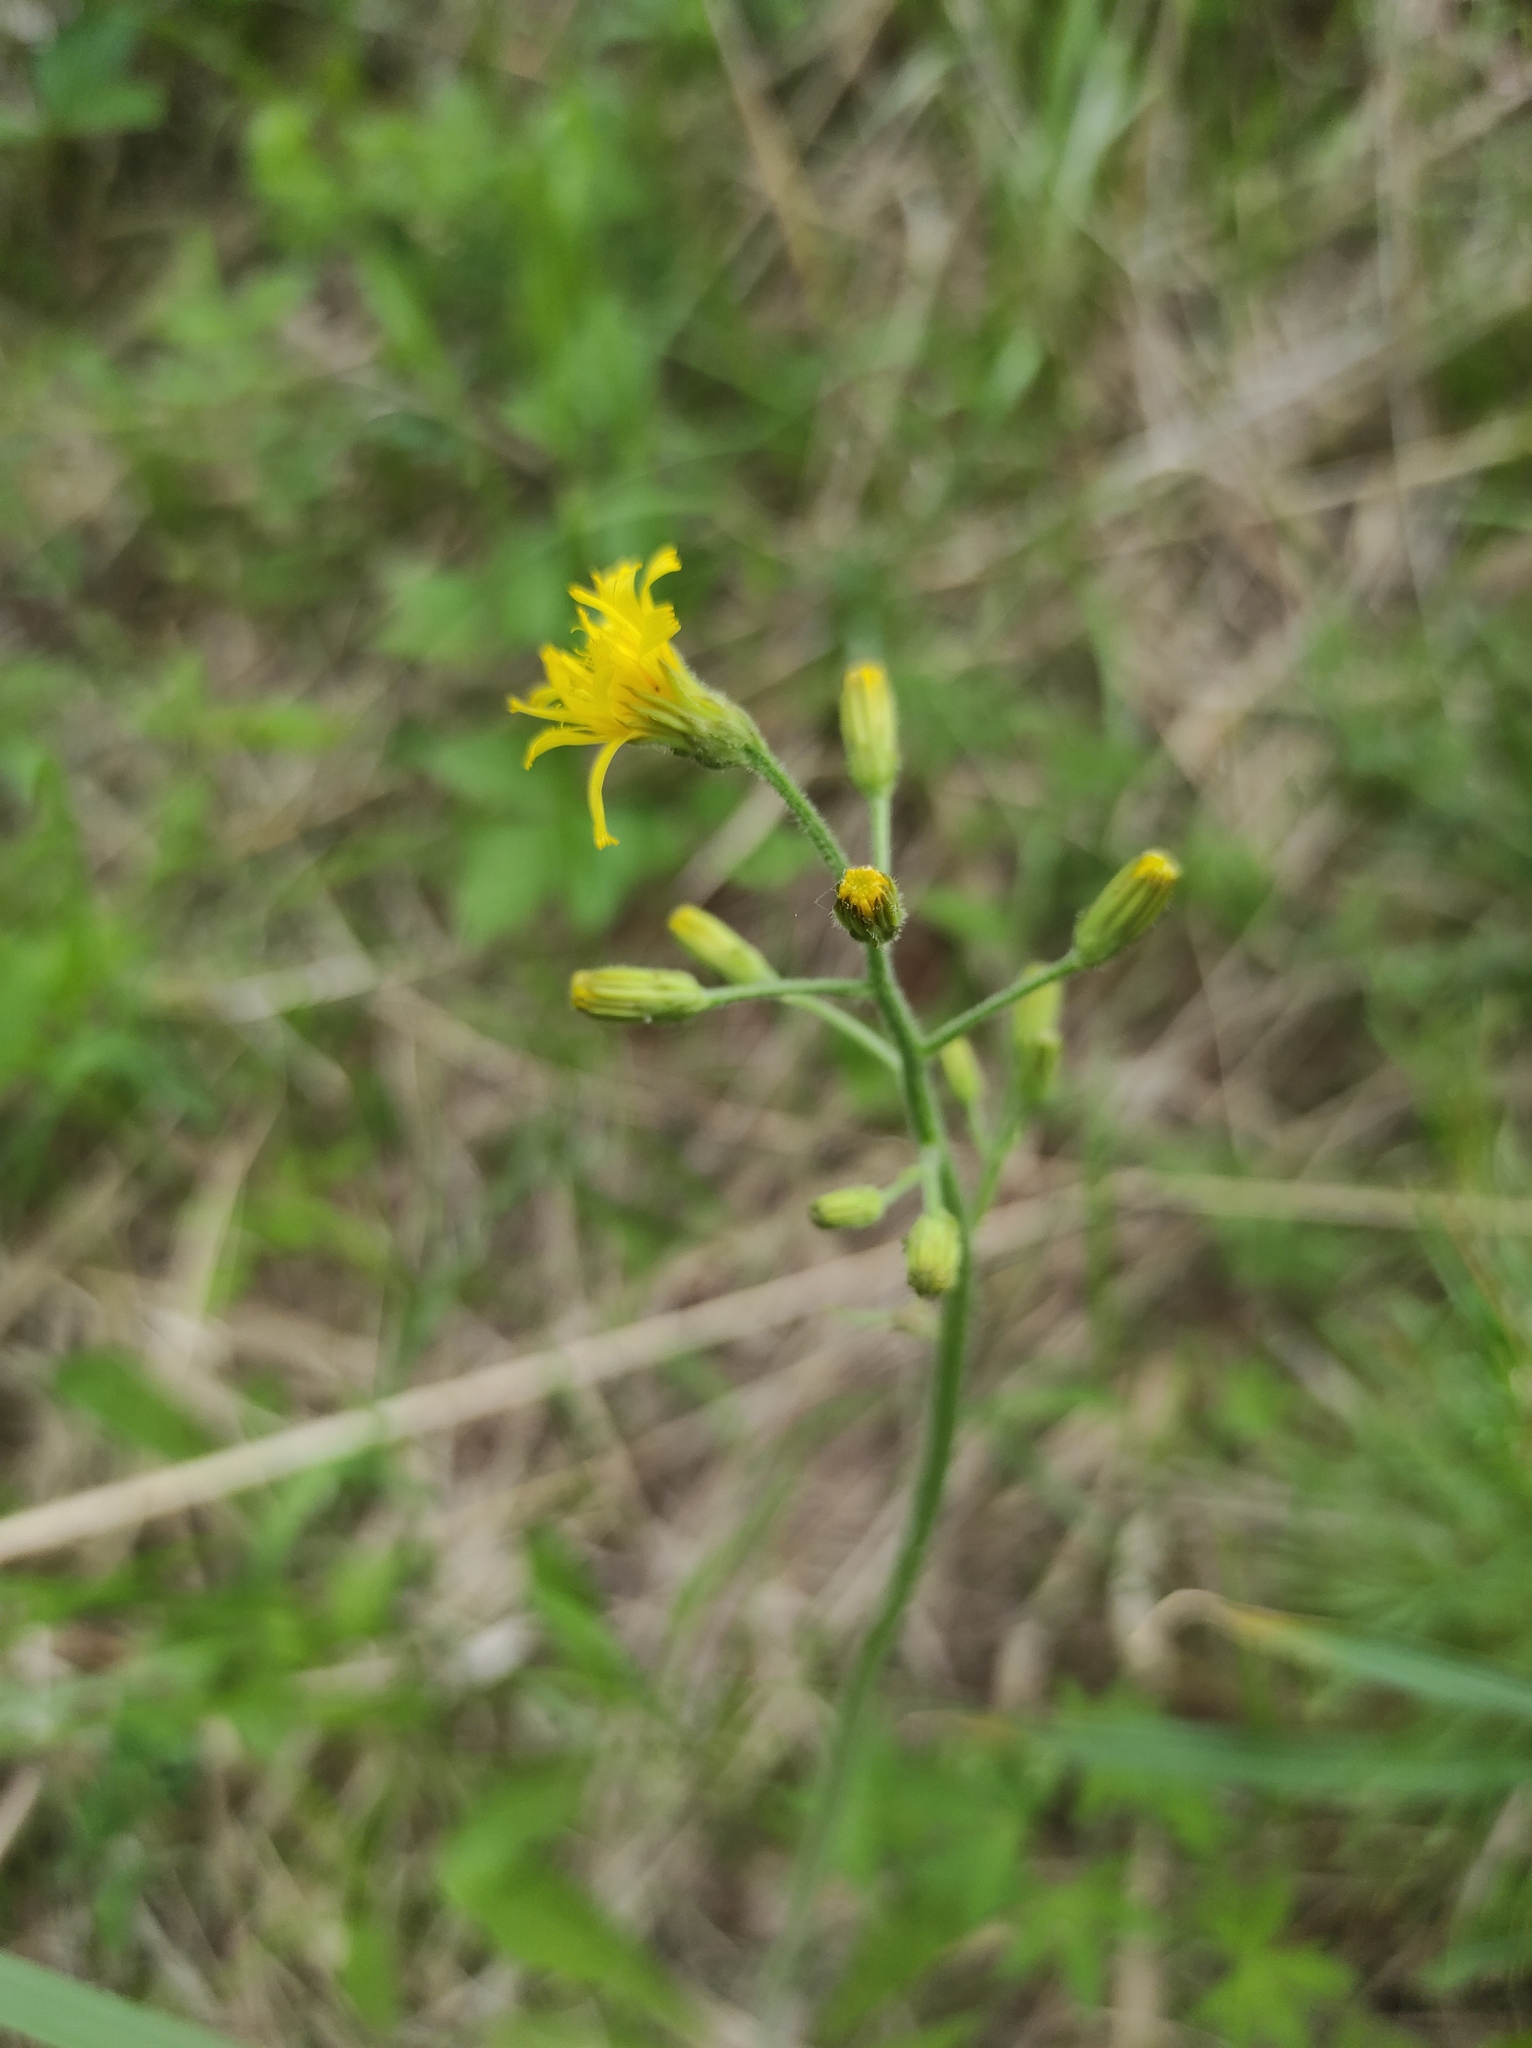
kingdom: Plantae
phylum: Tracheophyta
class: Magnoliopsida
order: Asterales
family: Asteraceae
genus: Crepis
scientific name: Crepis praemorsa
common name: Leafless hawk's-beard
